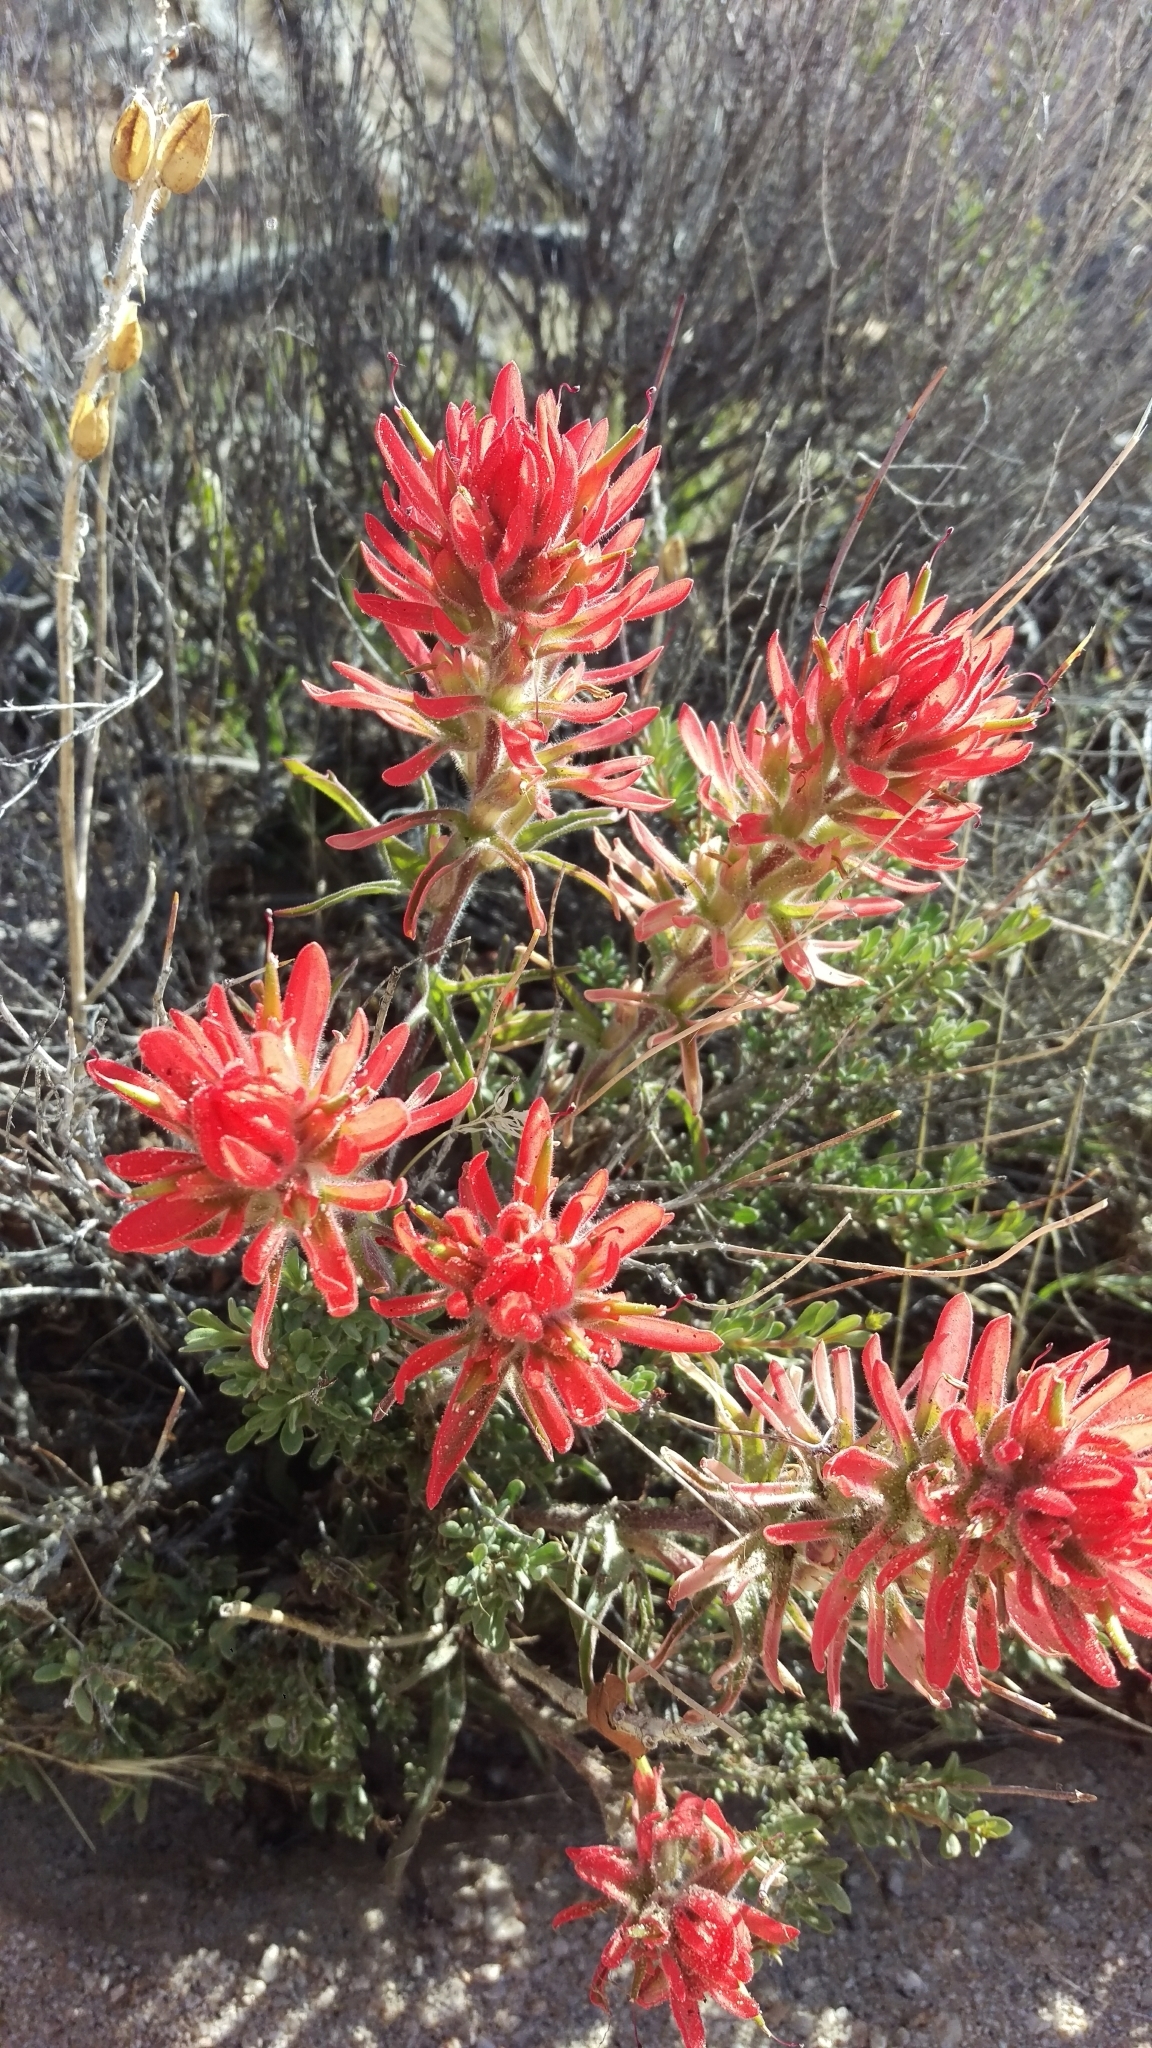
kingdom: Plantae
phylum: Tracheophyta
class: Magnoliopsida
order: Lamiales
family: Orobanchaceae
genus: Castilleja
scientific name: Castilleja chromosa
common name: Desert paintbrush
